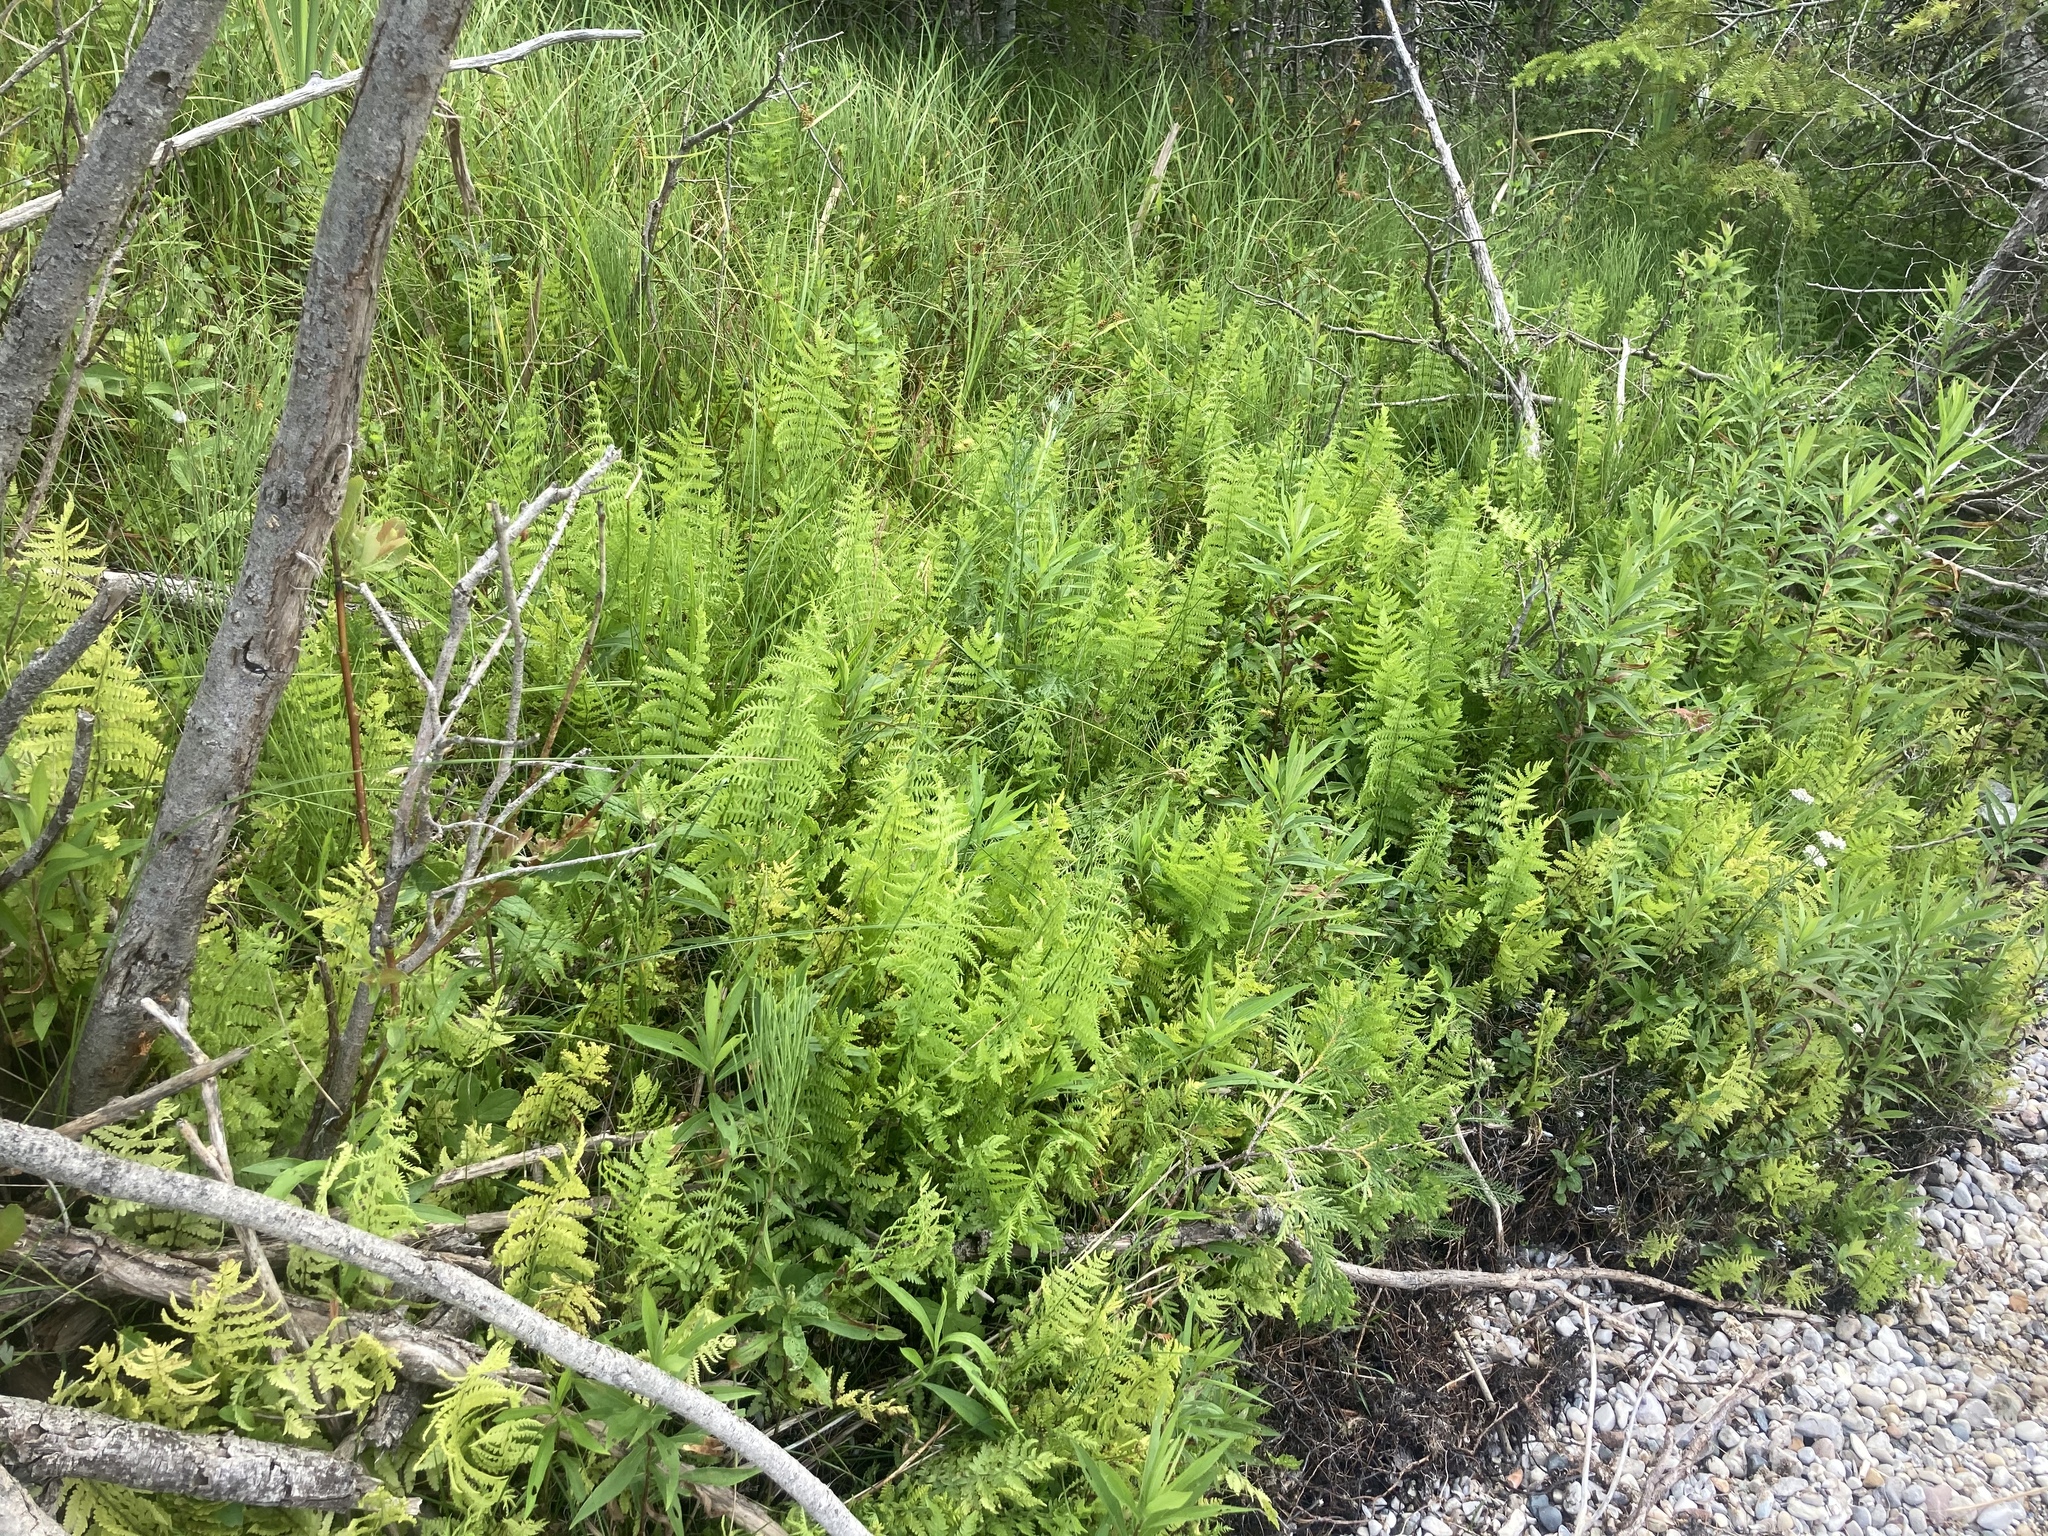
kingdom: Plantae
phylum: Tracheophyta
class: Polypodiopsida
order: Polypodiales
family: Thelypteridaceae
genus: Thelypteris
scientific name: Thelypteris palustris
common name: Marsh fern
